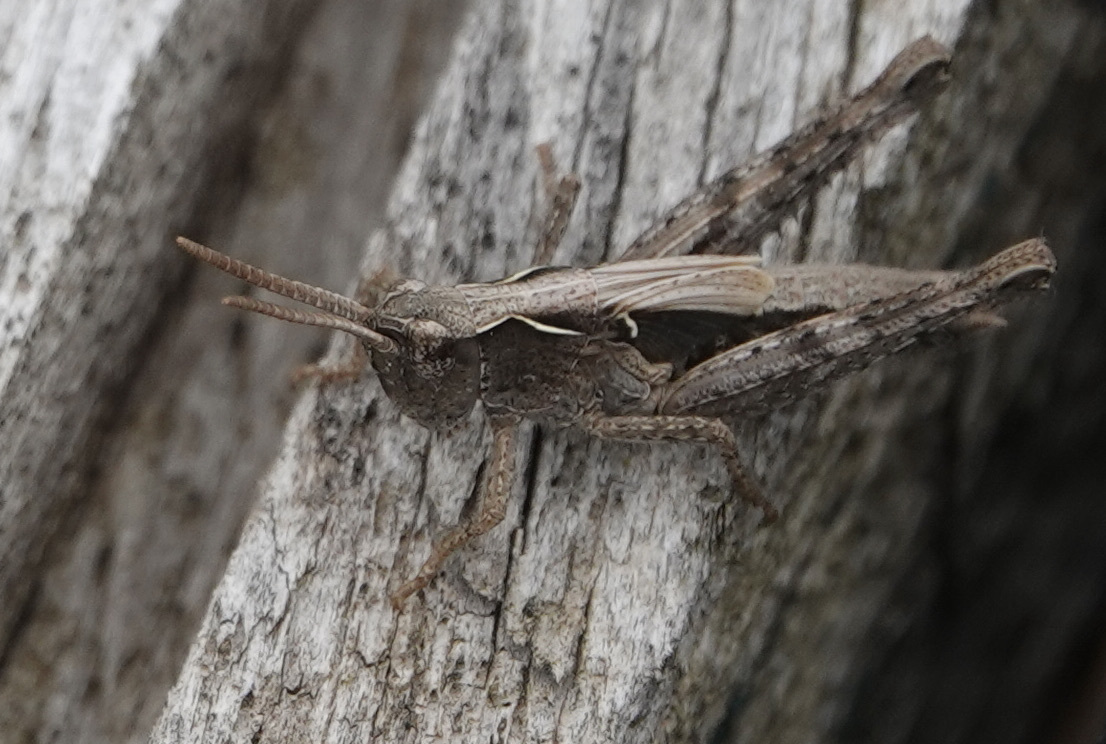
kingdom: Animalia
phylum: Arthropoda
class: Insecta
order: Orthoptera
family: Acrididae
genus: Chorthippus
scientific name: Chorthippus brunneus
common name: Field grasshopper
